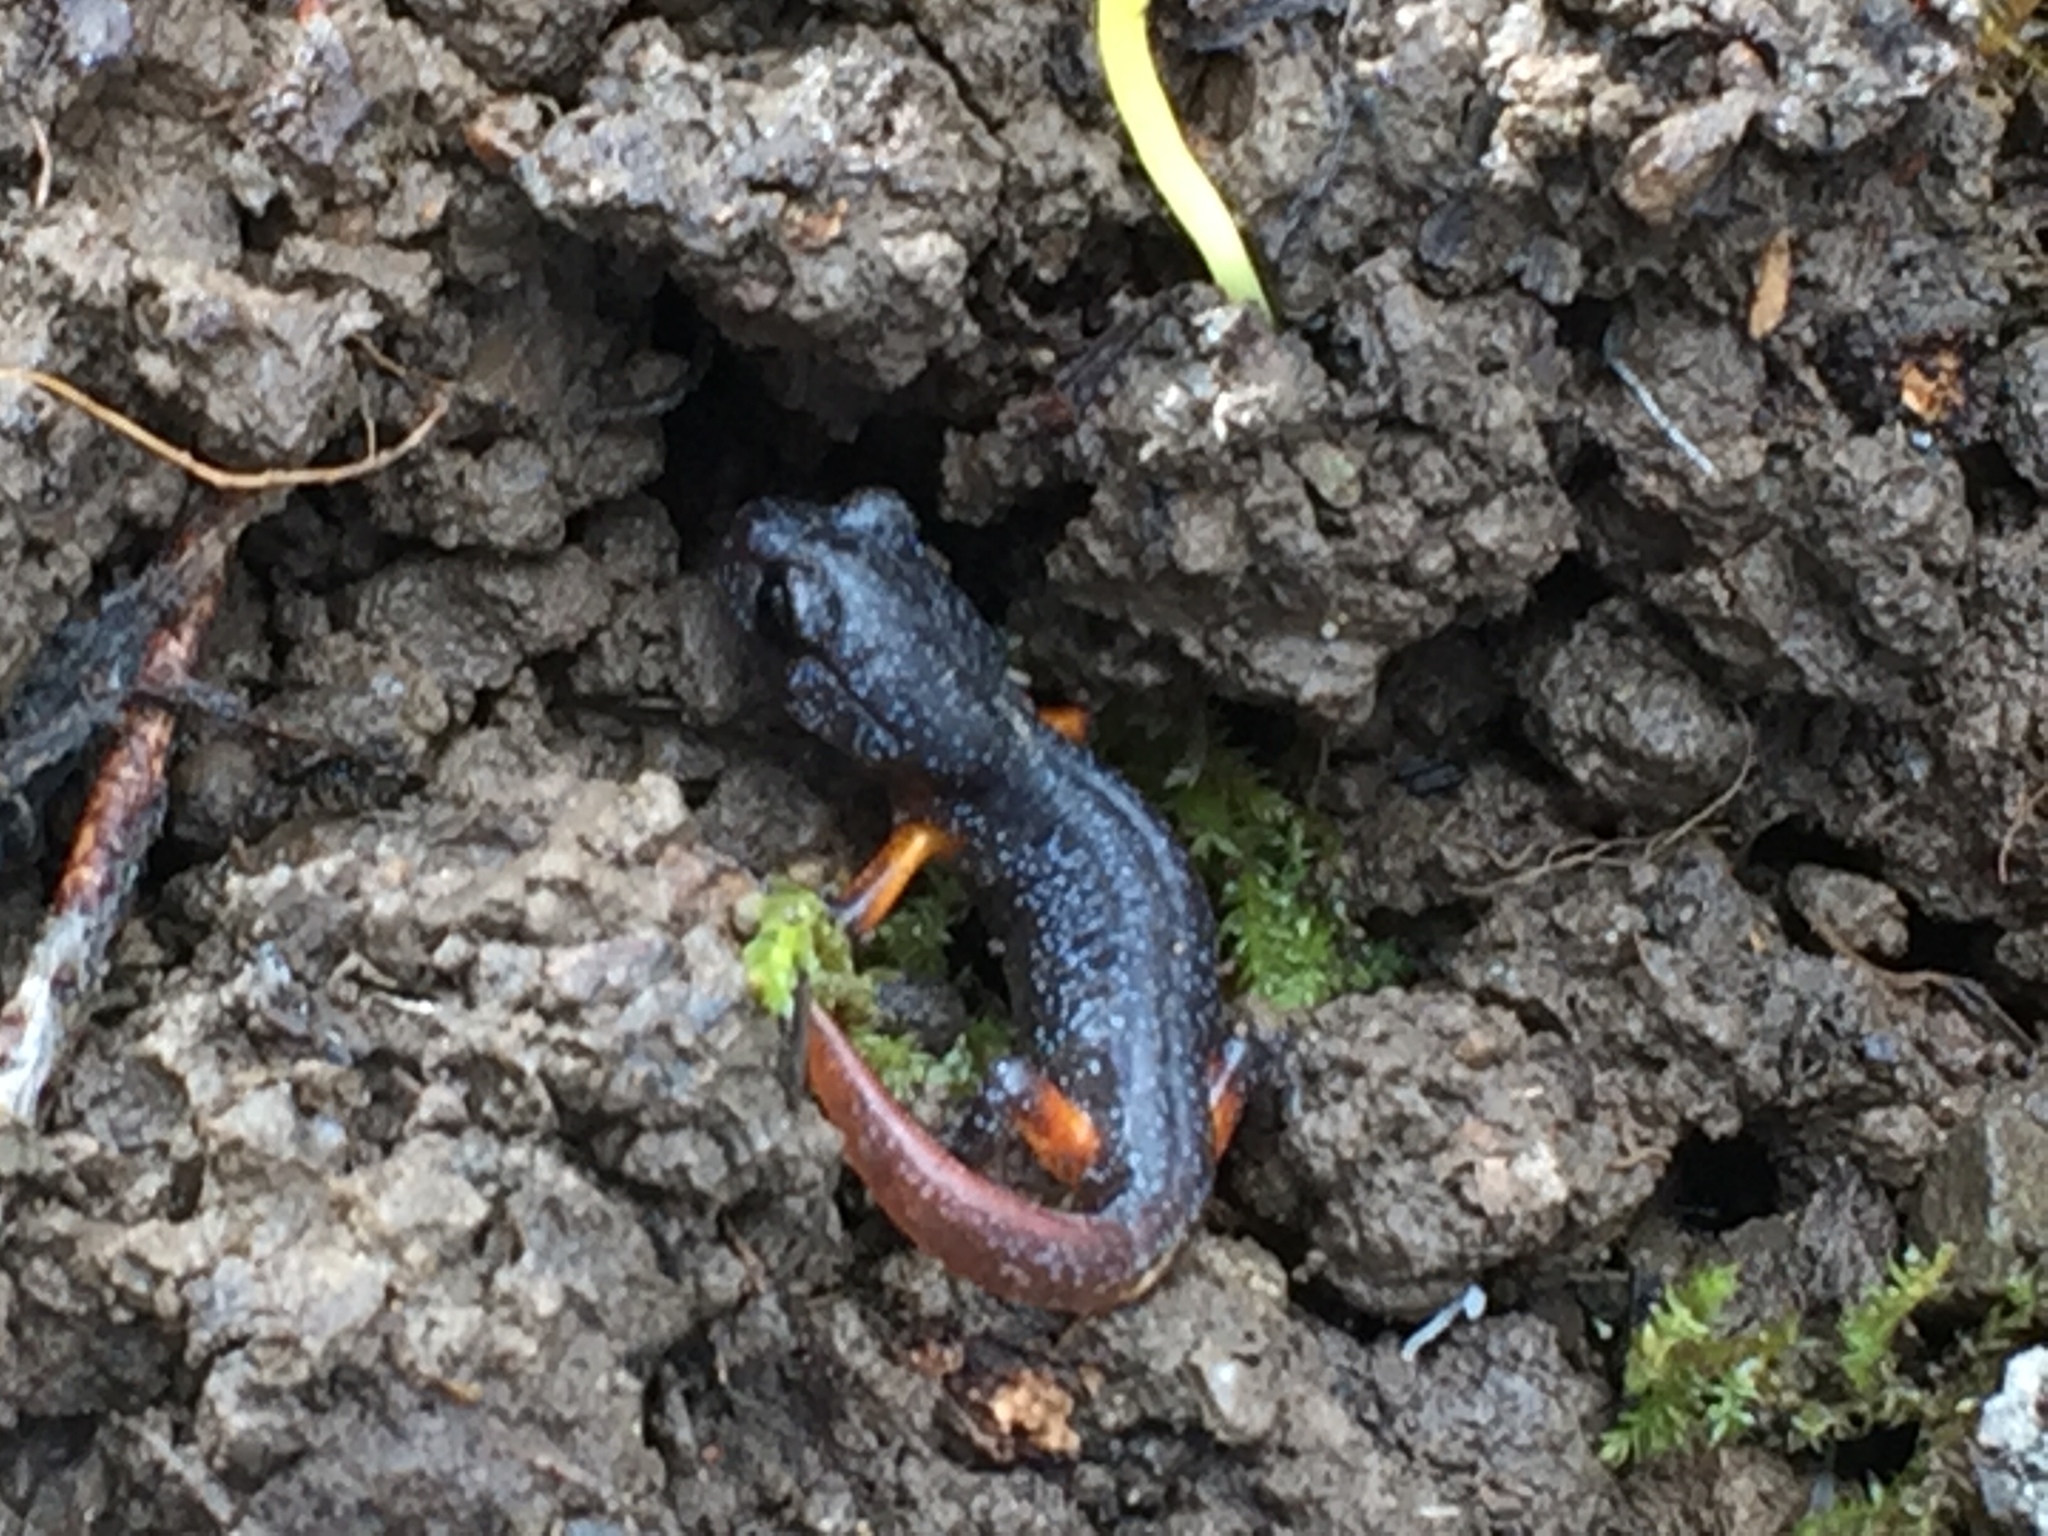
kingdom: Animalia
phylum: Chordata
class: Amphibia
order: Caudata
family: Plethodontidae
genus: Ensatina
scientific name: Ensatina eschscholtzii
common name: Ensatina
